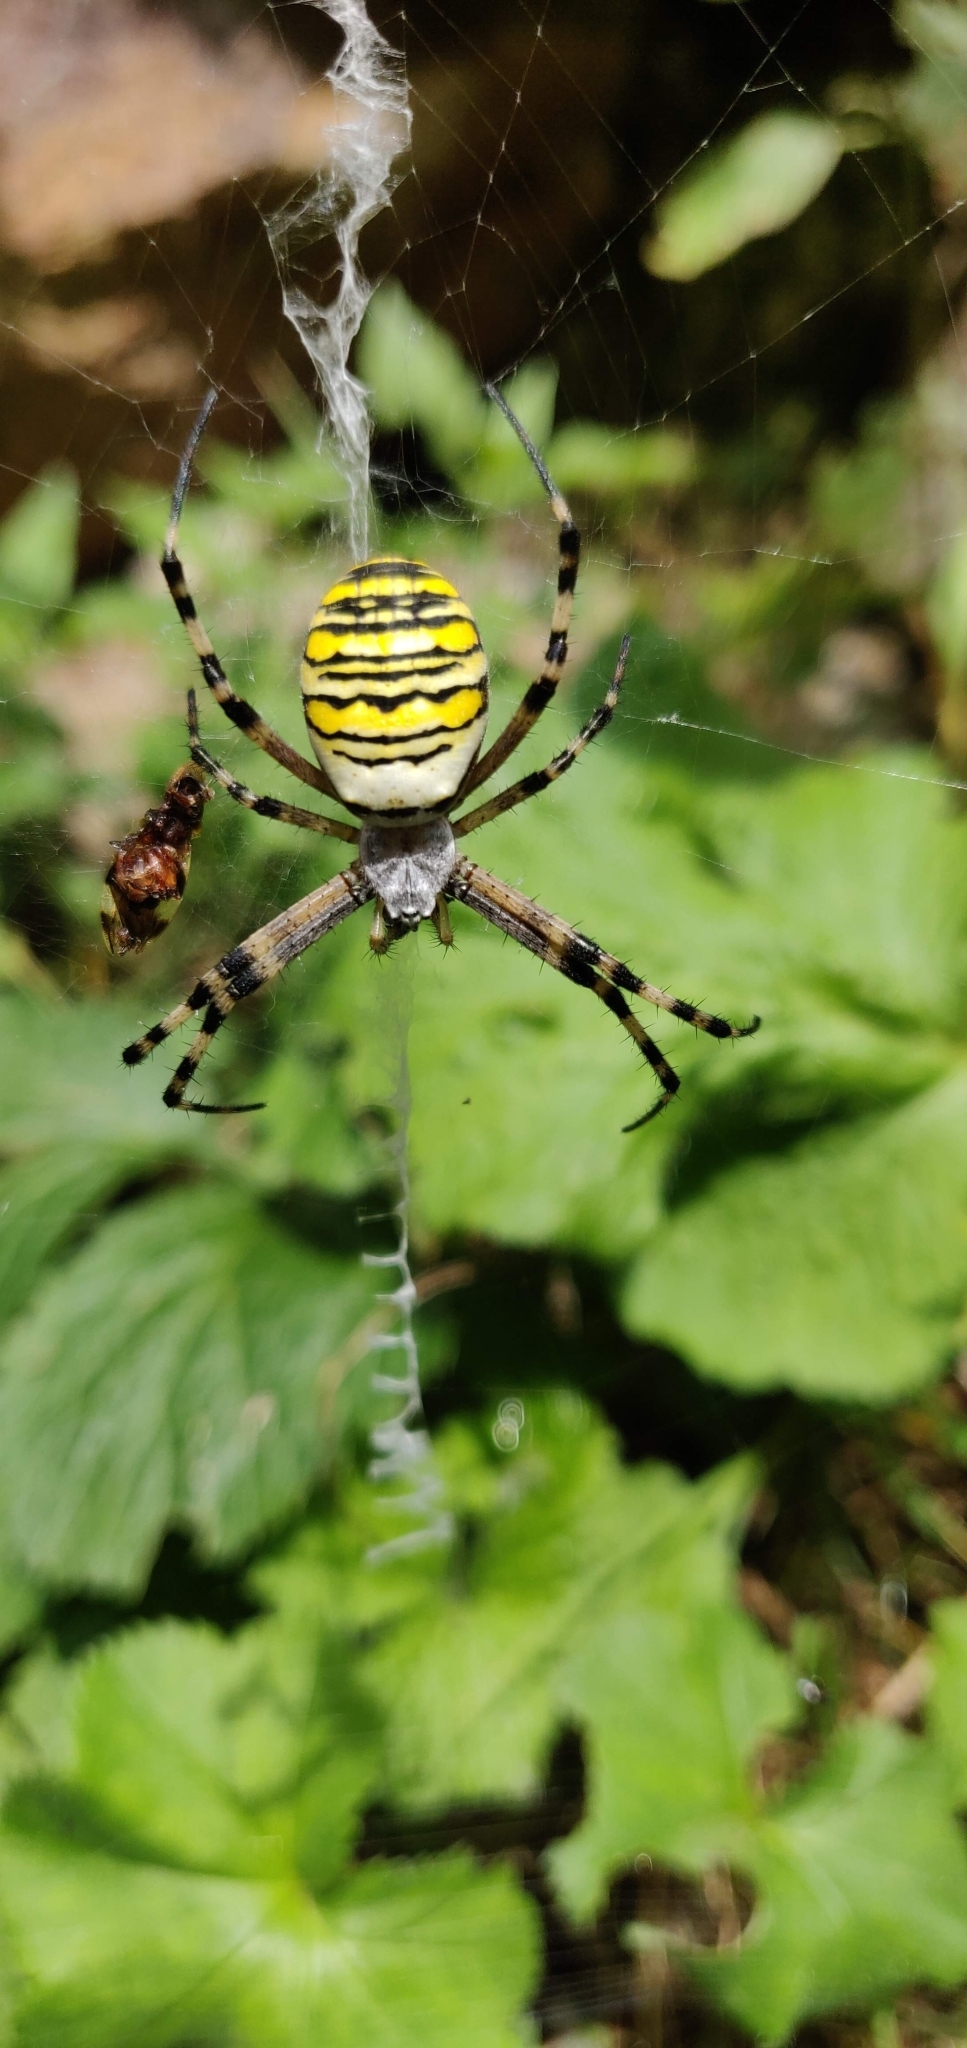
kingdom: Animalia
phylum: Arthropoda
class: Arachnida
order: Araneae
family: Araneidae
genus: Argiope
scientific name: Argiope bruennichi
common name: Wasp spider
